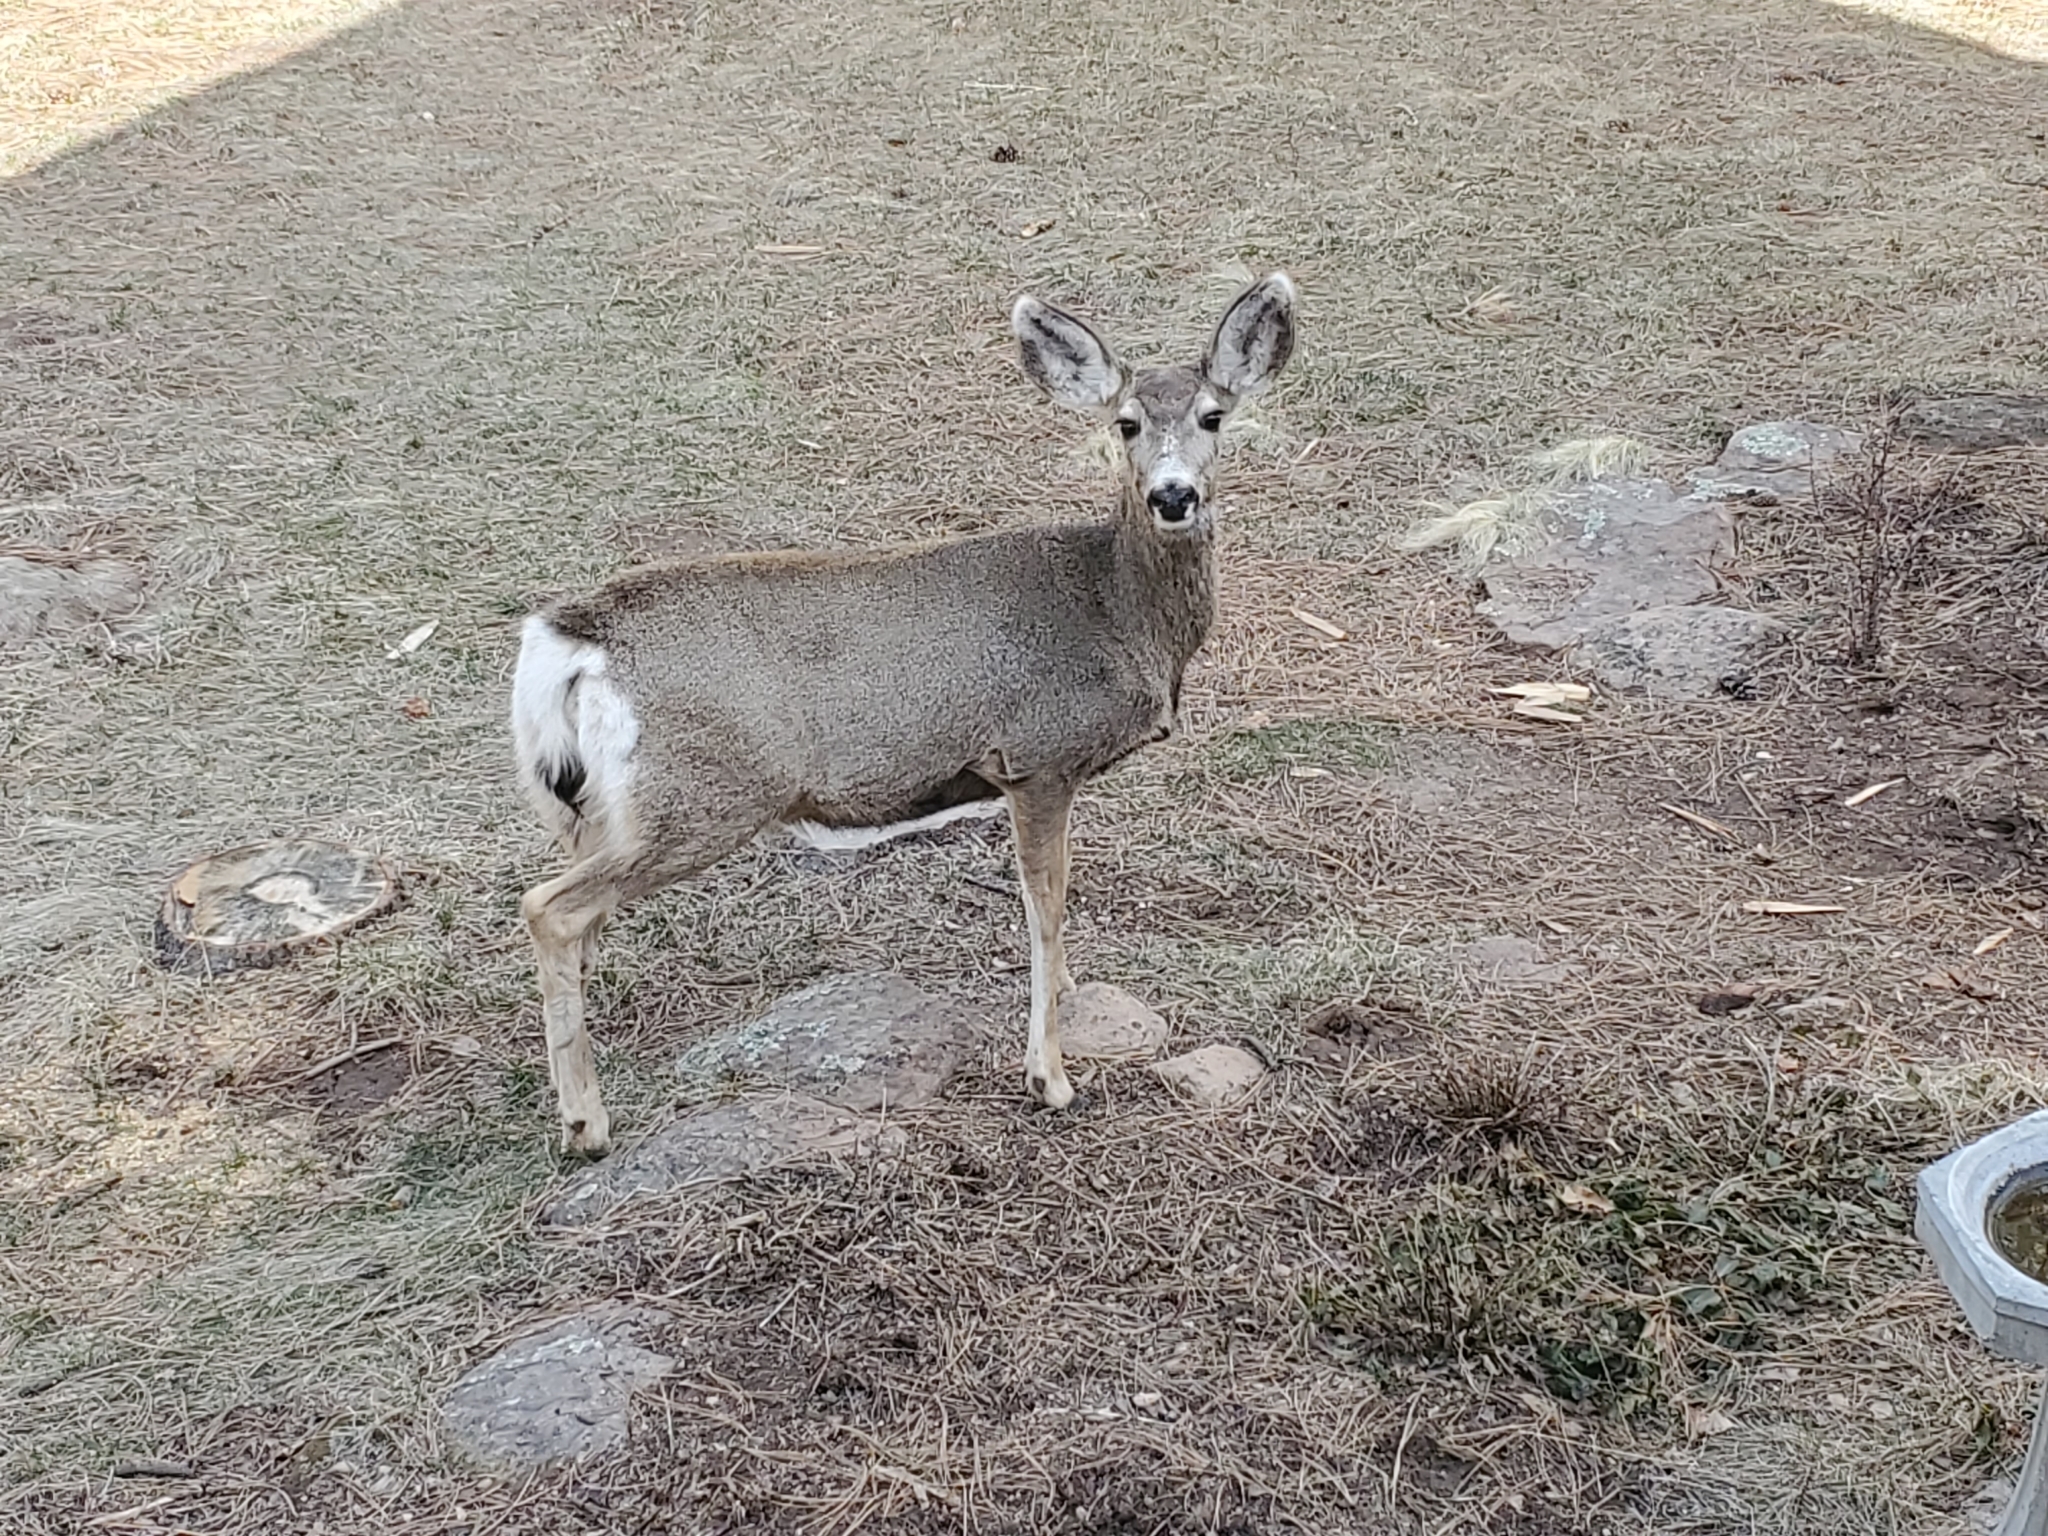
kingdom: Animalia
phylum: Chordata
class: Mammalia
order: Artiodactyla
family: Cervidae
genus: Odocoileus
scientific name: Odocoileus hemionus
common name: Mule deer
